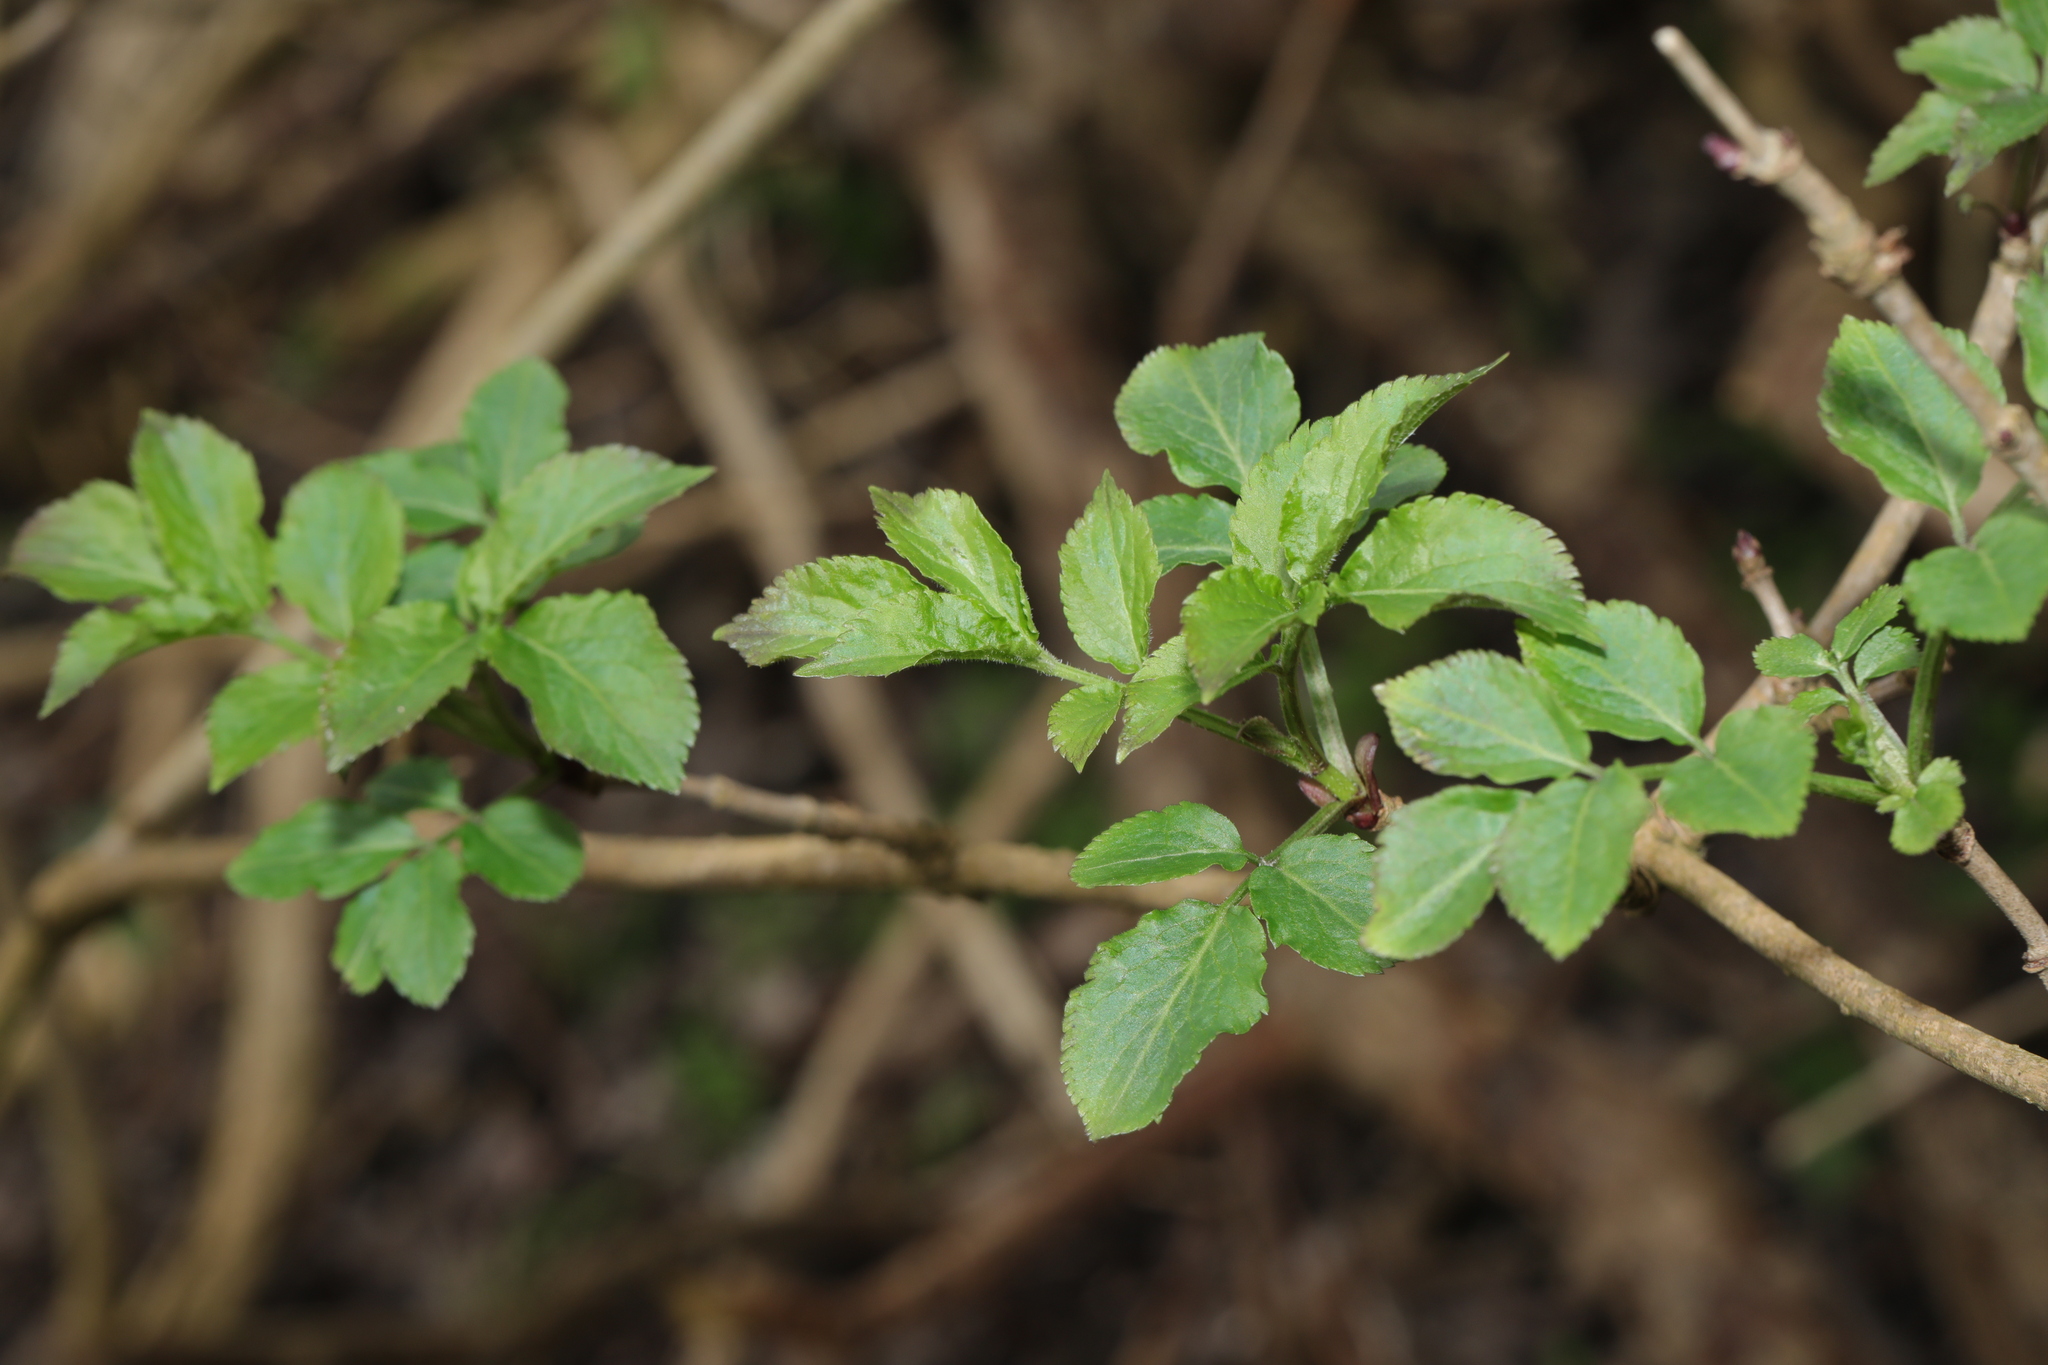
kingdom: Plantae
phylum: Tracheophyta
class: Magnoliopsida
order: Dipsacales
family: Viburnaceae
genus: Sambucus
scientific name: Sambucus nigra
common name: Elder
